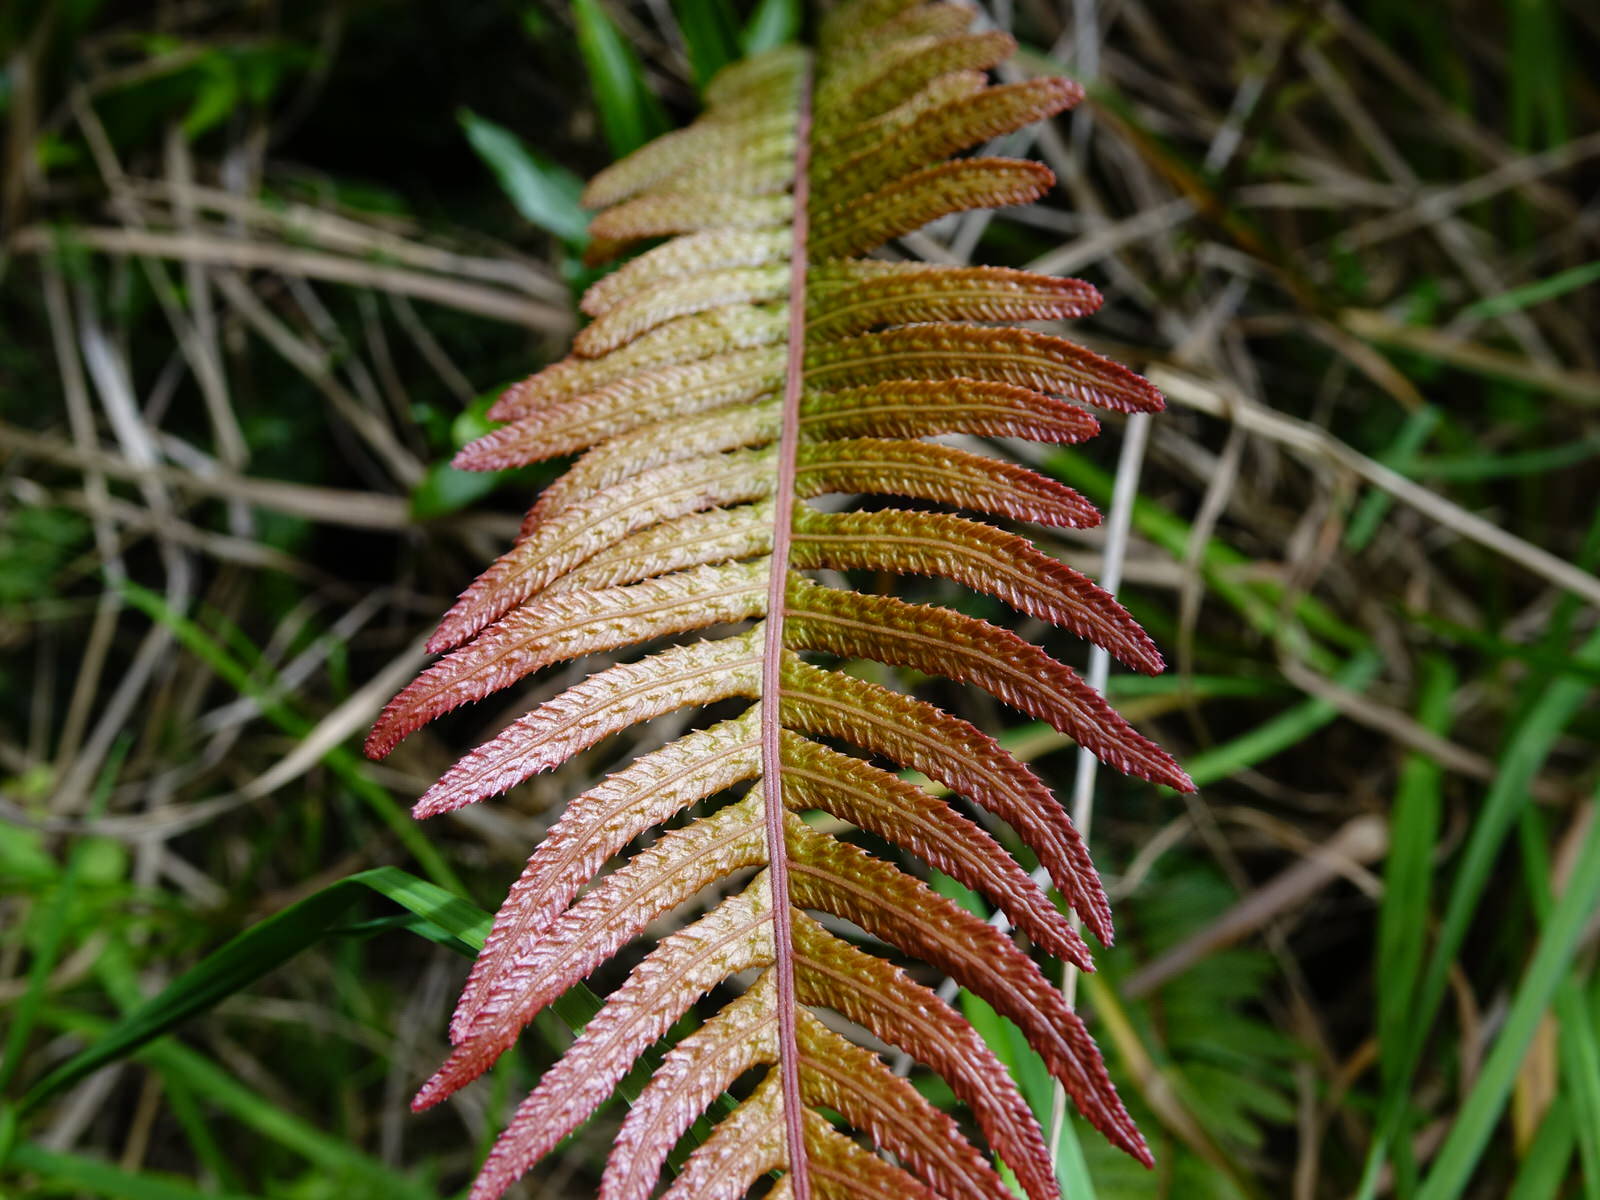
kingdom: Plantae
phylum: Tracheophyta
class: Polypodiopsida
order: Polypodiales
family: Blechnaceae
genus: Doodia
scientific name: Doodia australis
